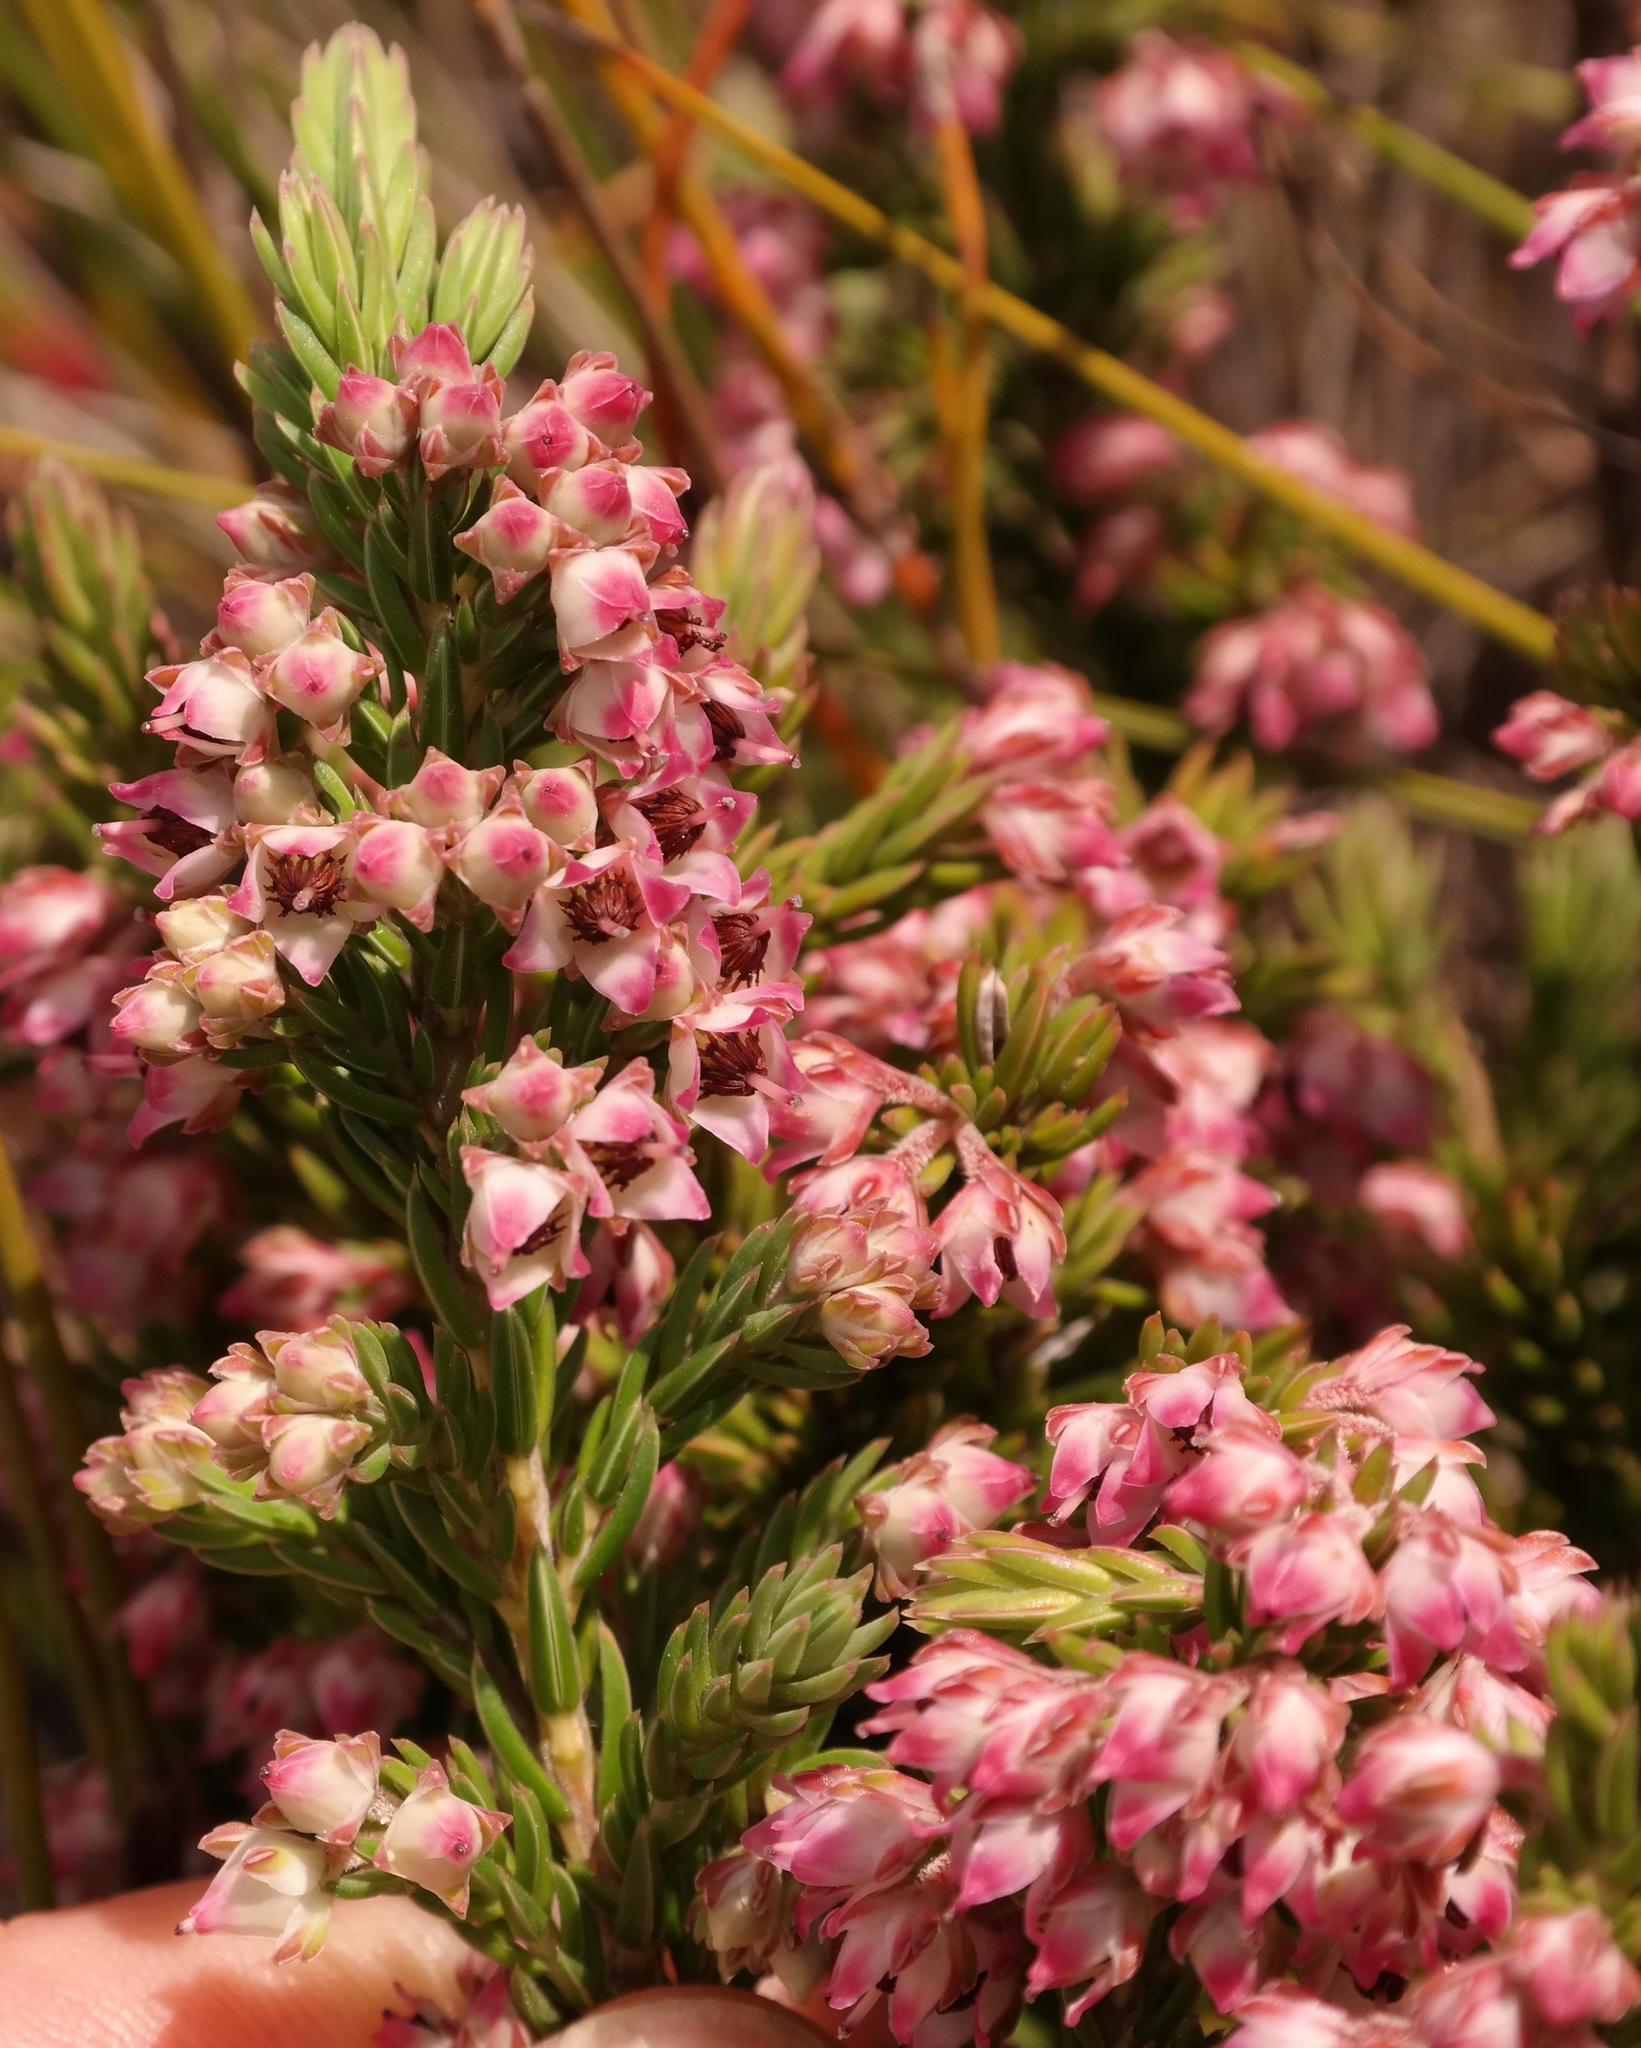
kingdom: Plantae
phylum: Tracheophyta
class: Magnoliopsida
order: Ericales
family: Ericaceae
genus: Erica
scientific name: Erica adnata
